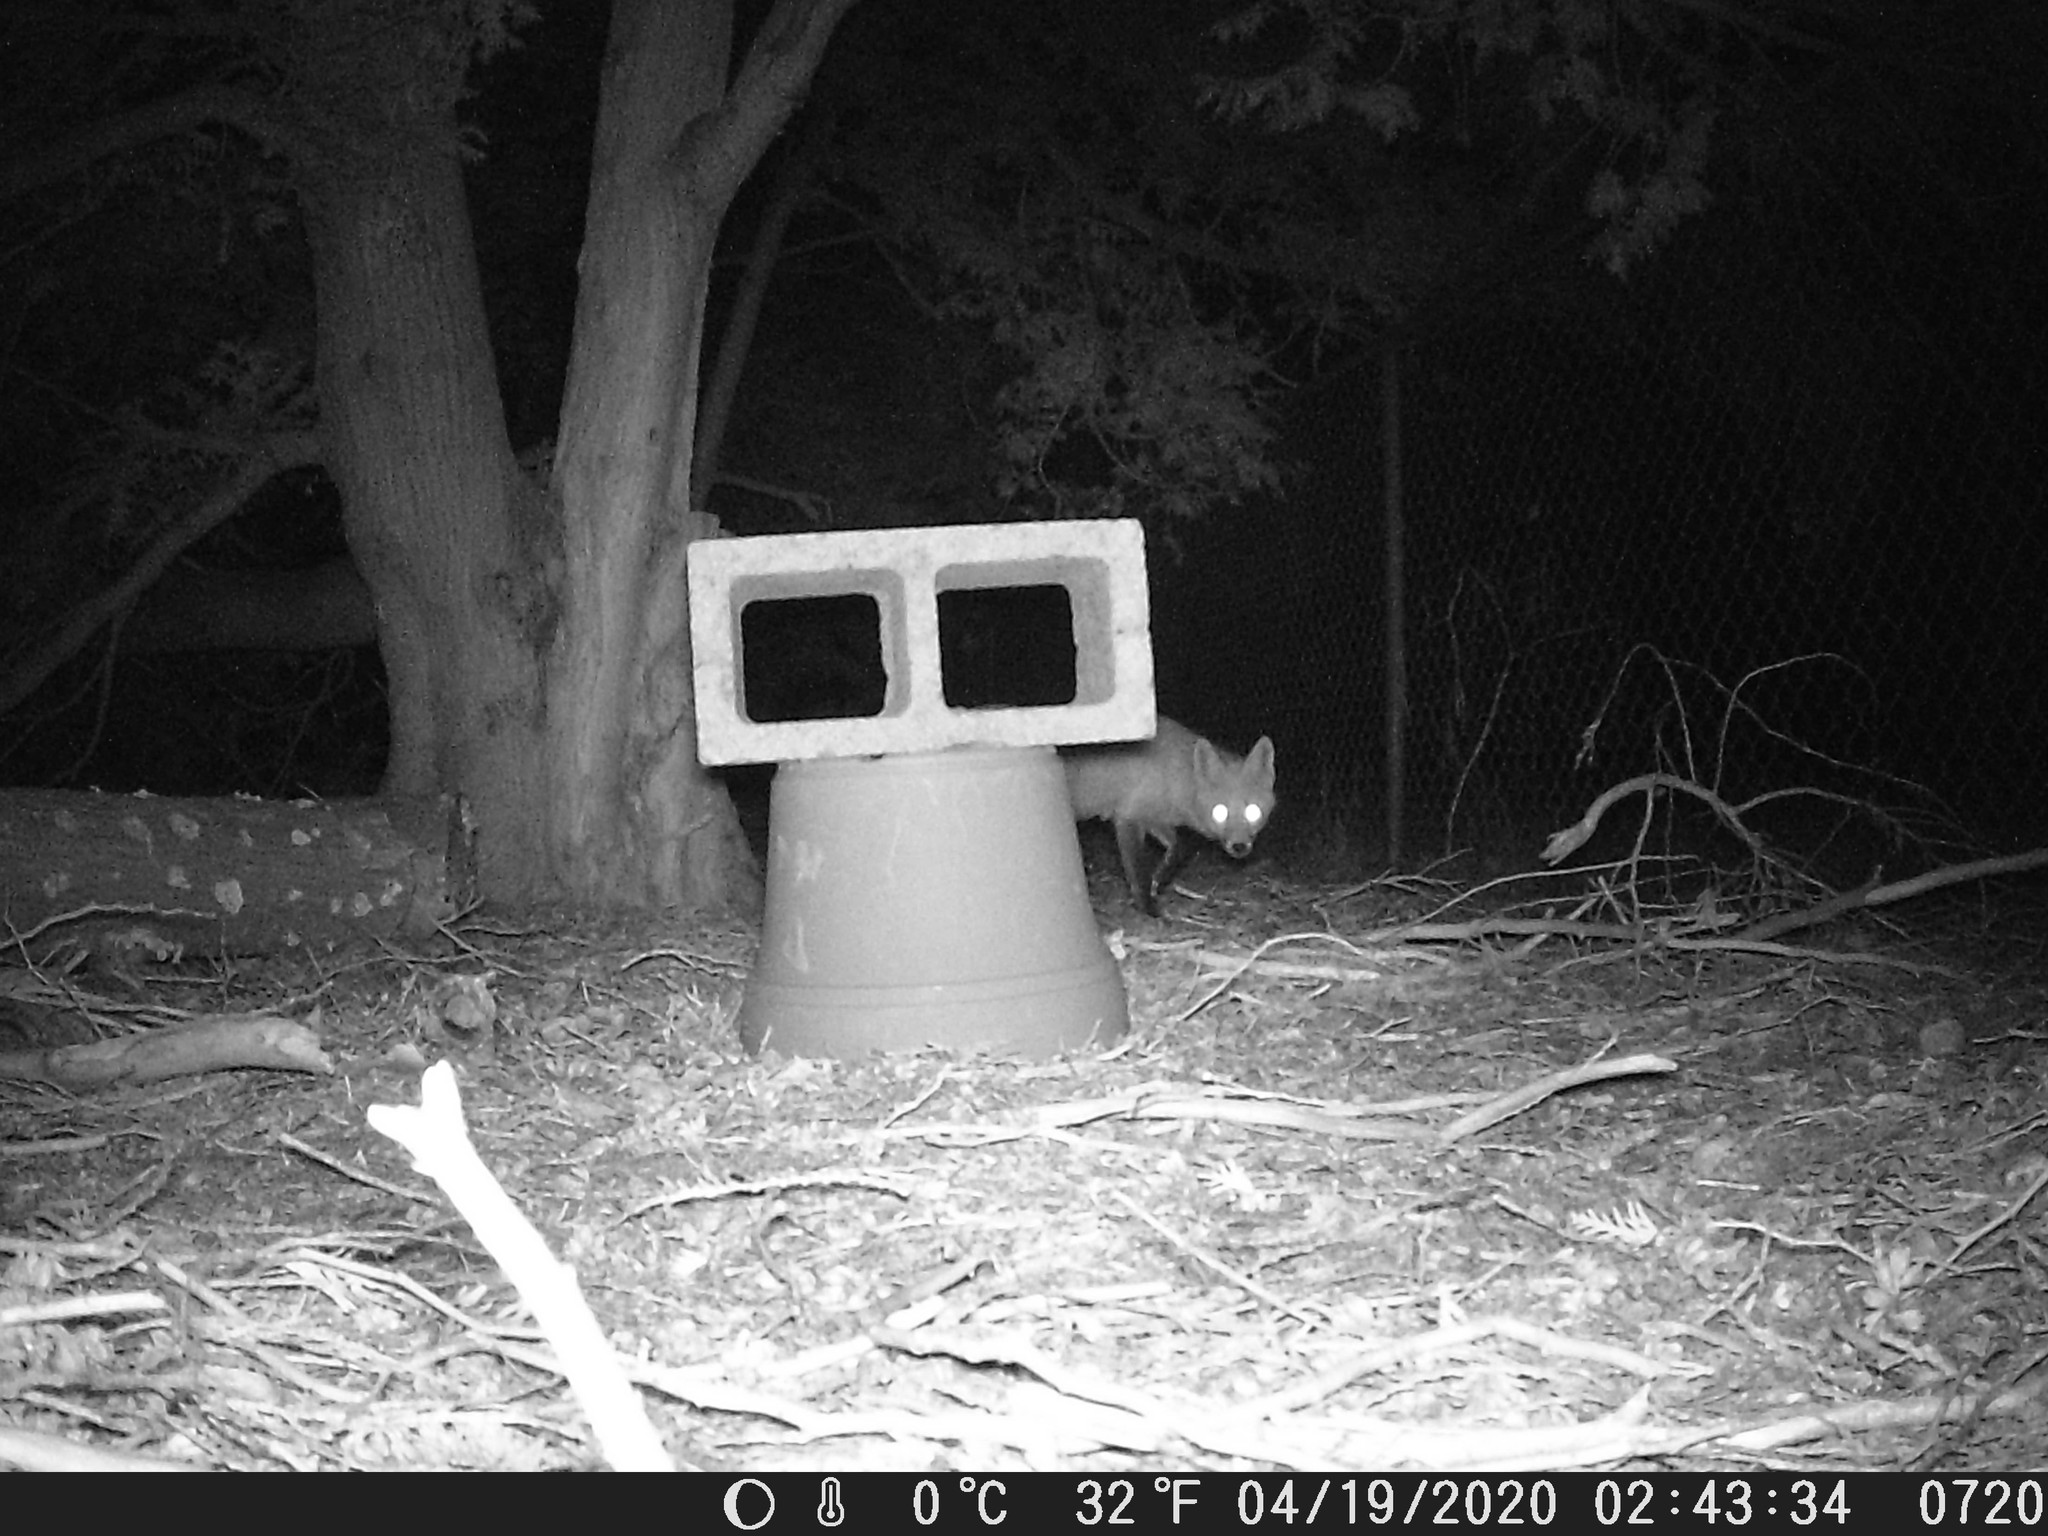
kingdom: Animalia
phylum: Chordata
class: Mammalia
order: Carnivora
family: Canidae
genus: Vulpes
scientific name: Vulpes vulpes
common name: Red fox
